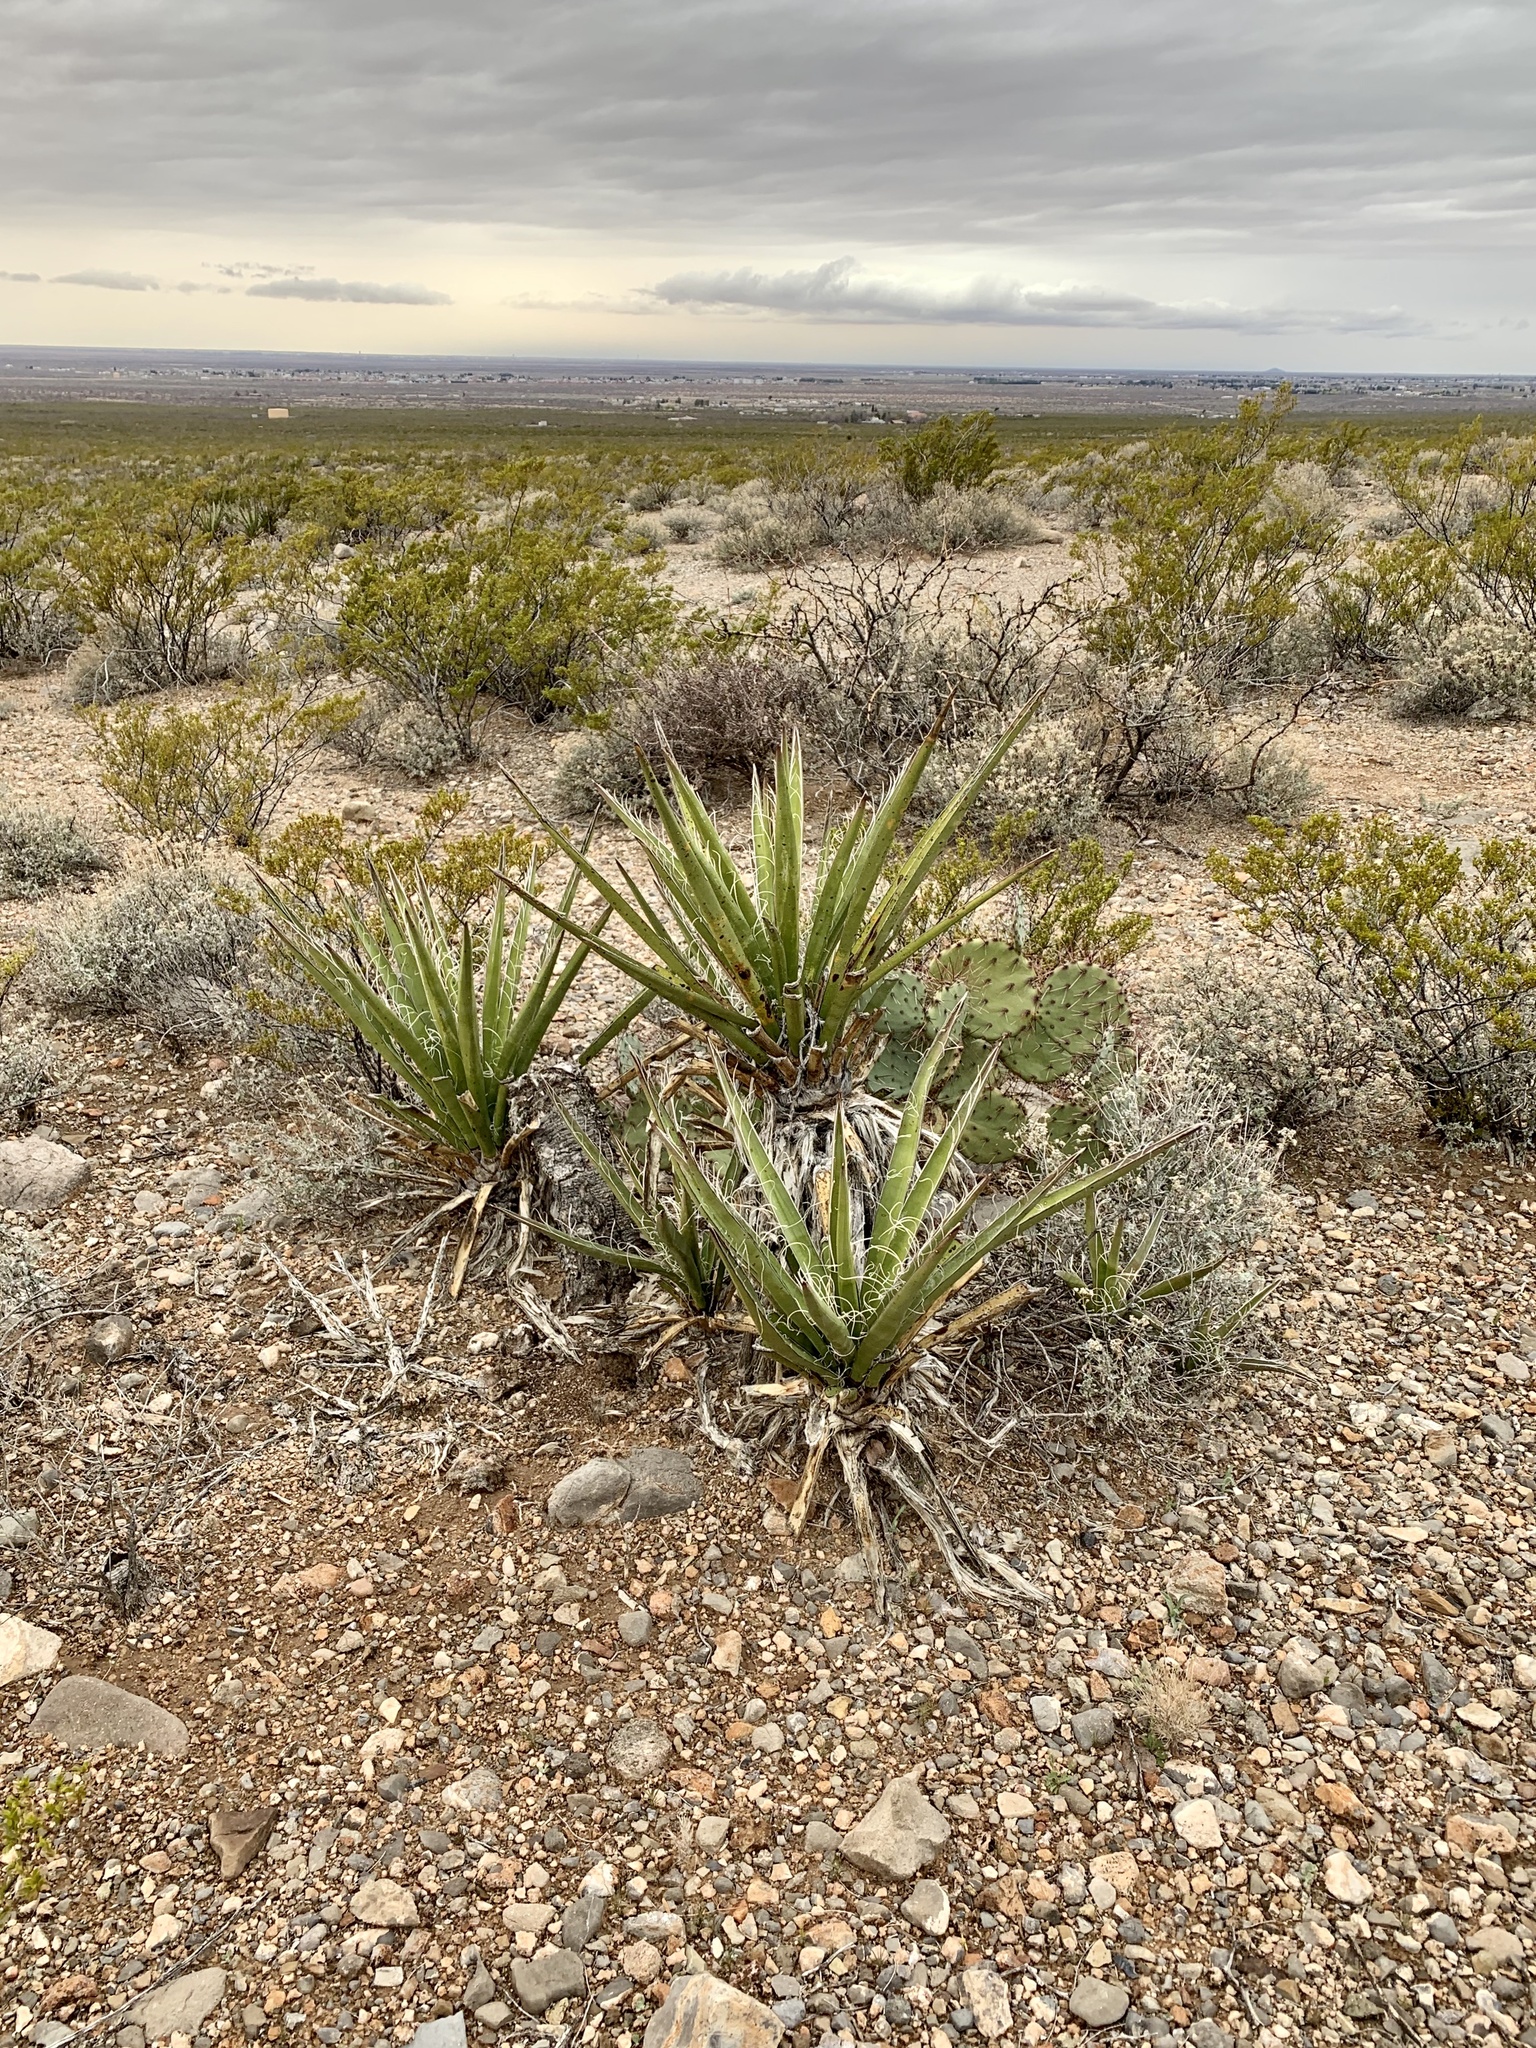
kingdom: Plantae
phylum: Tracheophyta
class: Liliopsida
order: Asparagales
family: Asparagaceae
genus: Yucca
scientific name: Yucca baccata
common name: Banana yucca
